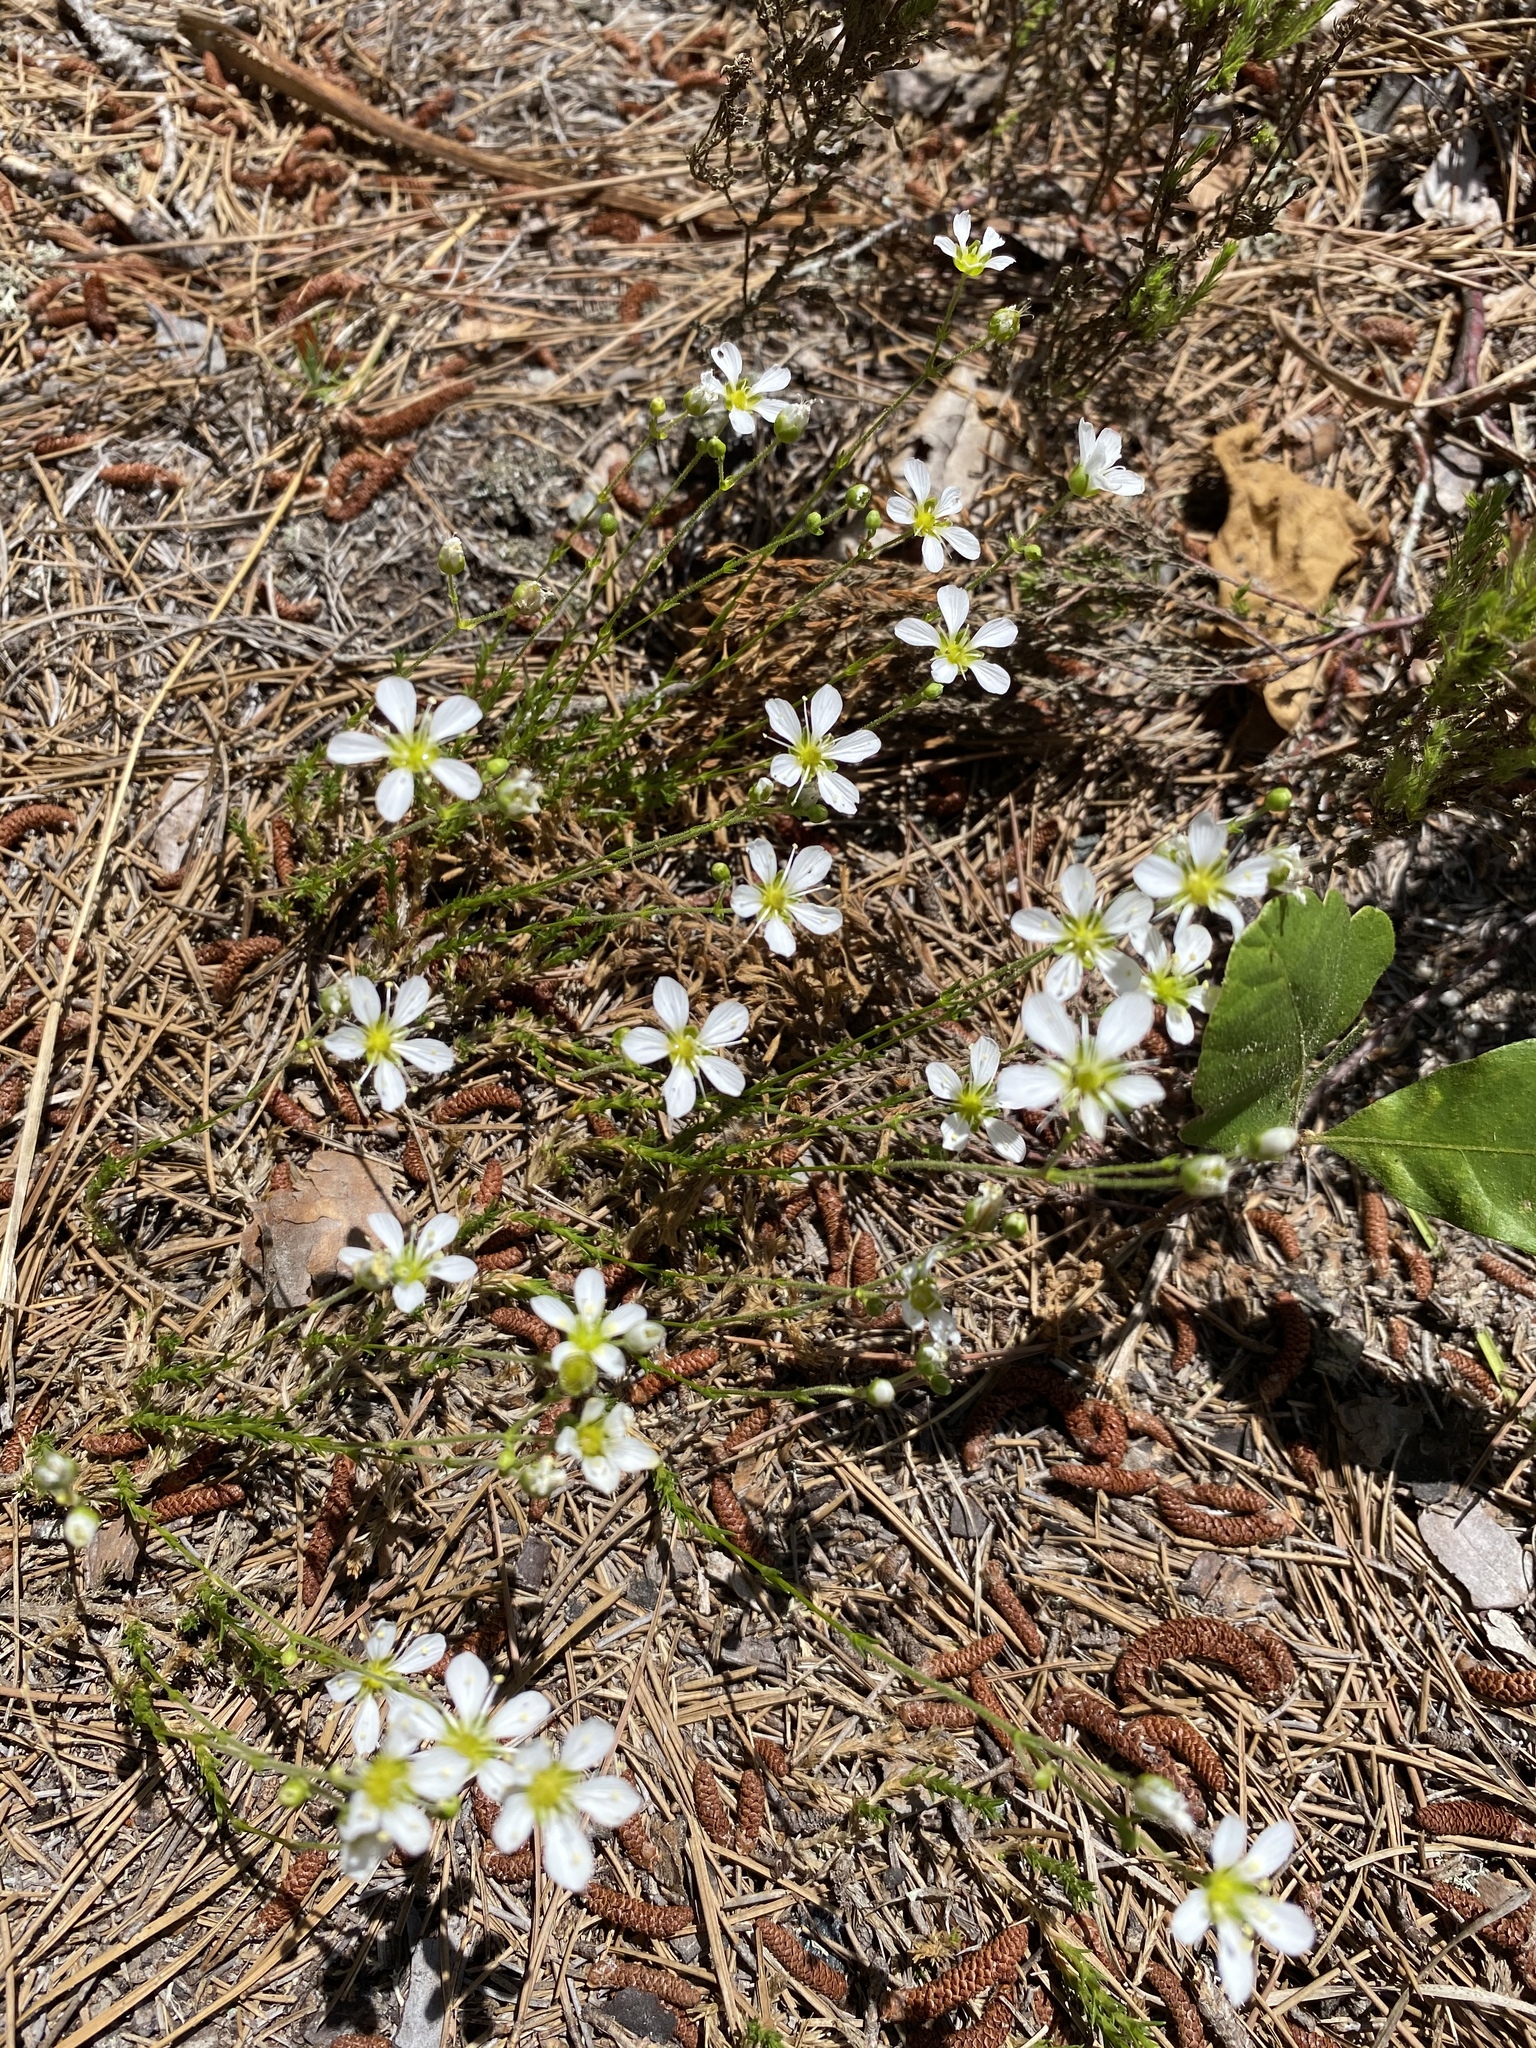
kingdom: Plantae
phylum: Tracheophyta
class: Magnoliopsida
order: Caryophyllales
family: Caryophyllaceae
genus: Geocarpon
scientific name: Geocarpon carolinianum
